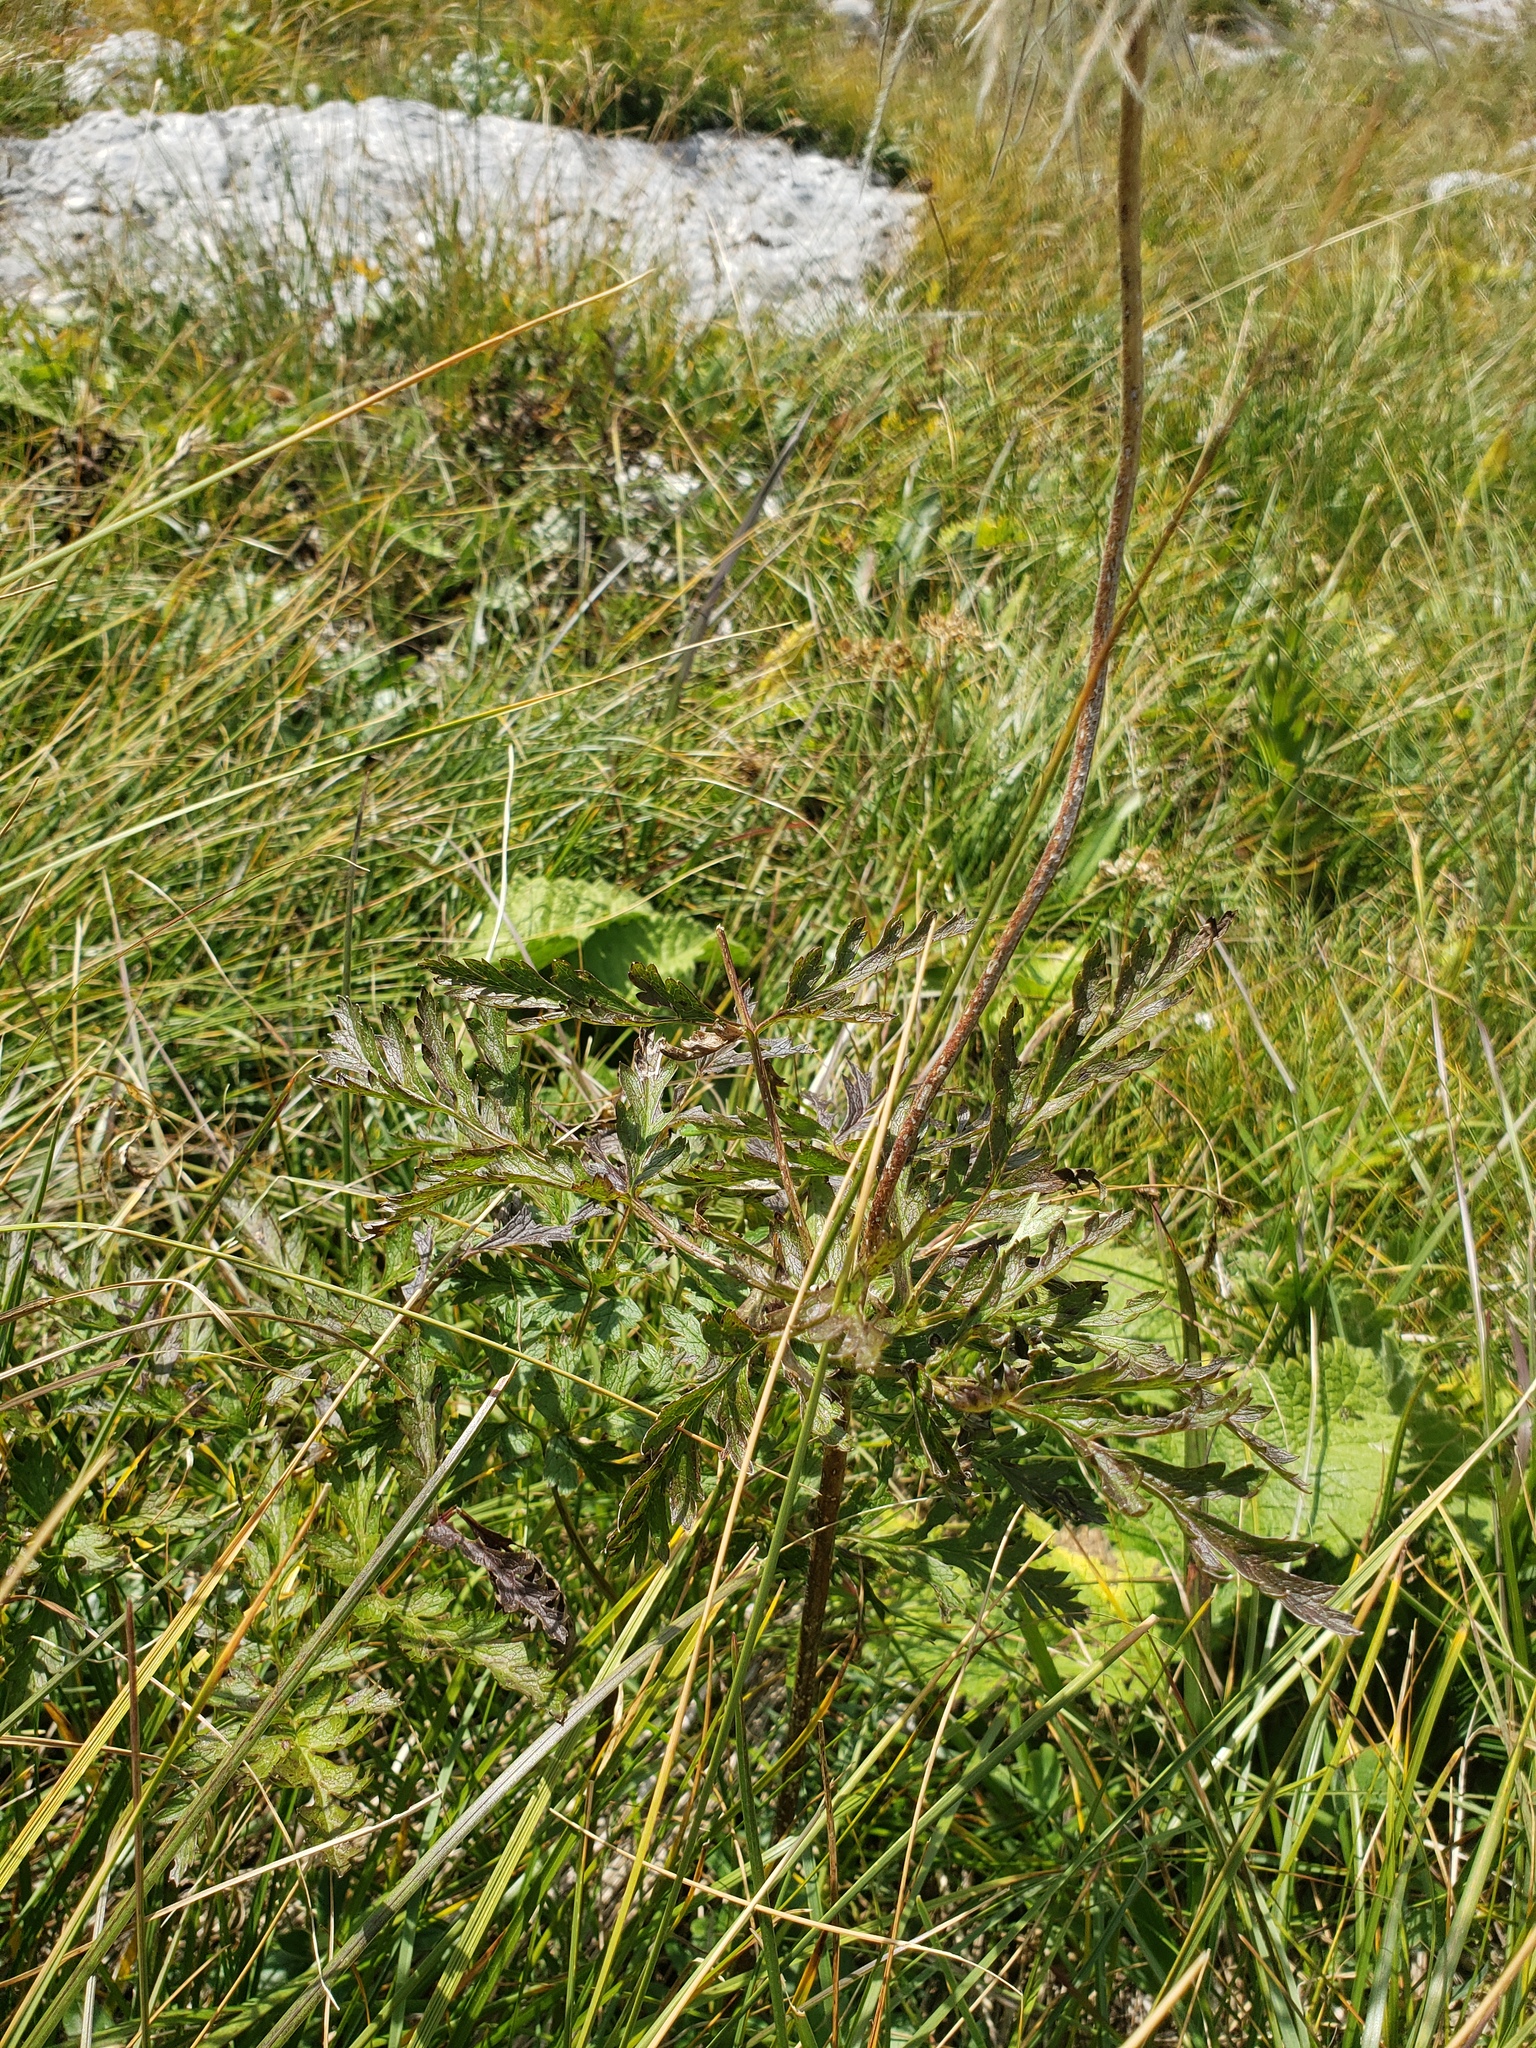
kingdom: Plantae
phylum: Tracheophyta
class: Magnoliopsida
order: Ranunculales
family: Ranunculaceae
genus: Pulsatilla
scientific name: Pulsatilla alpina
